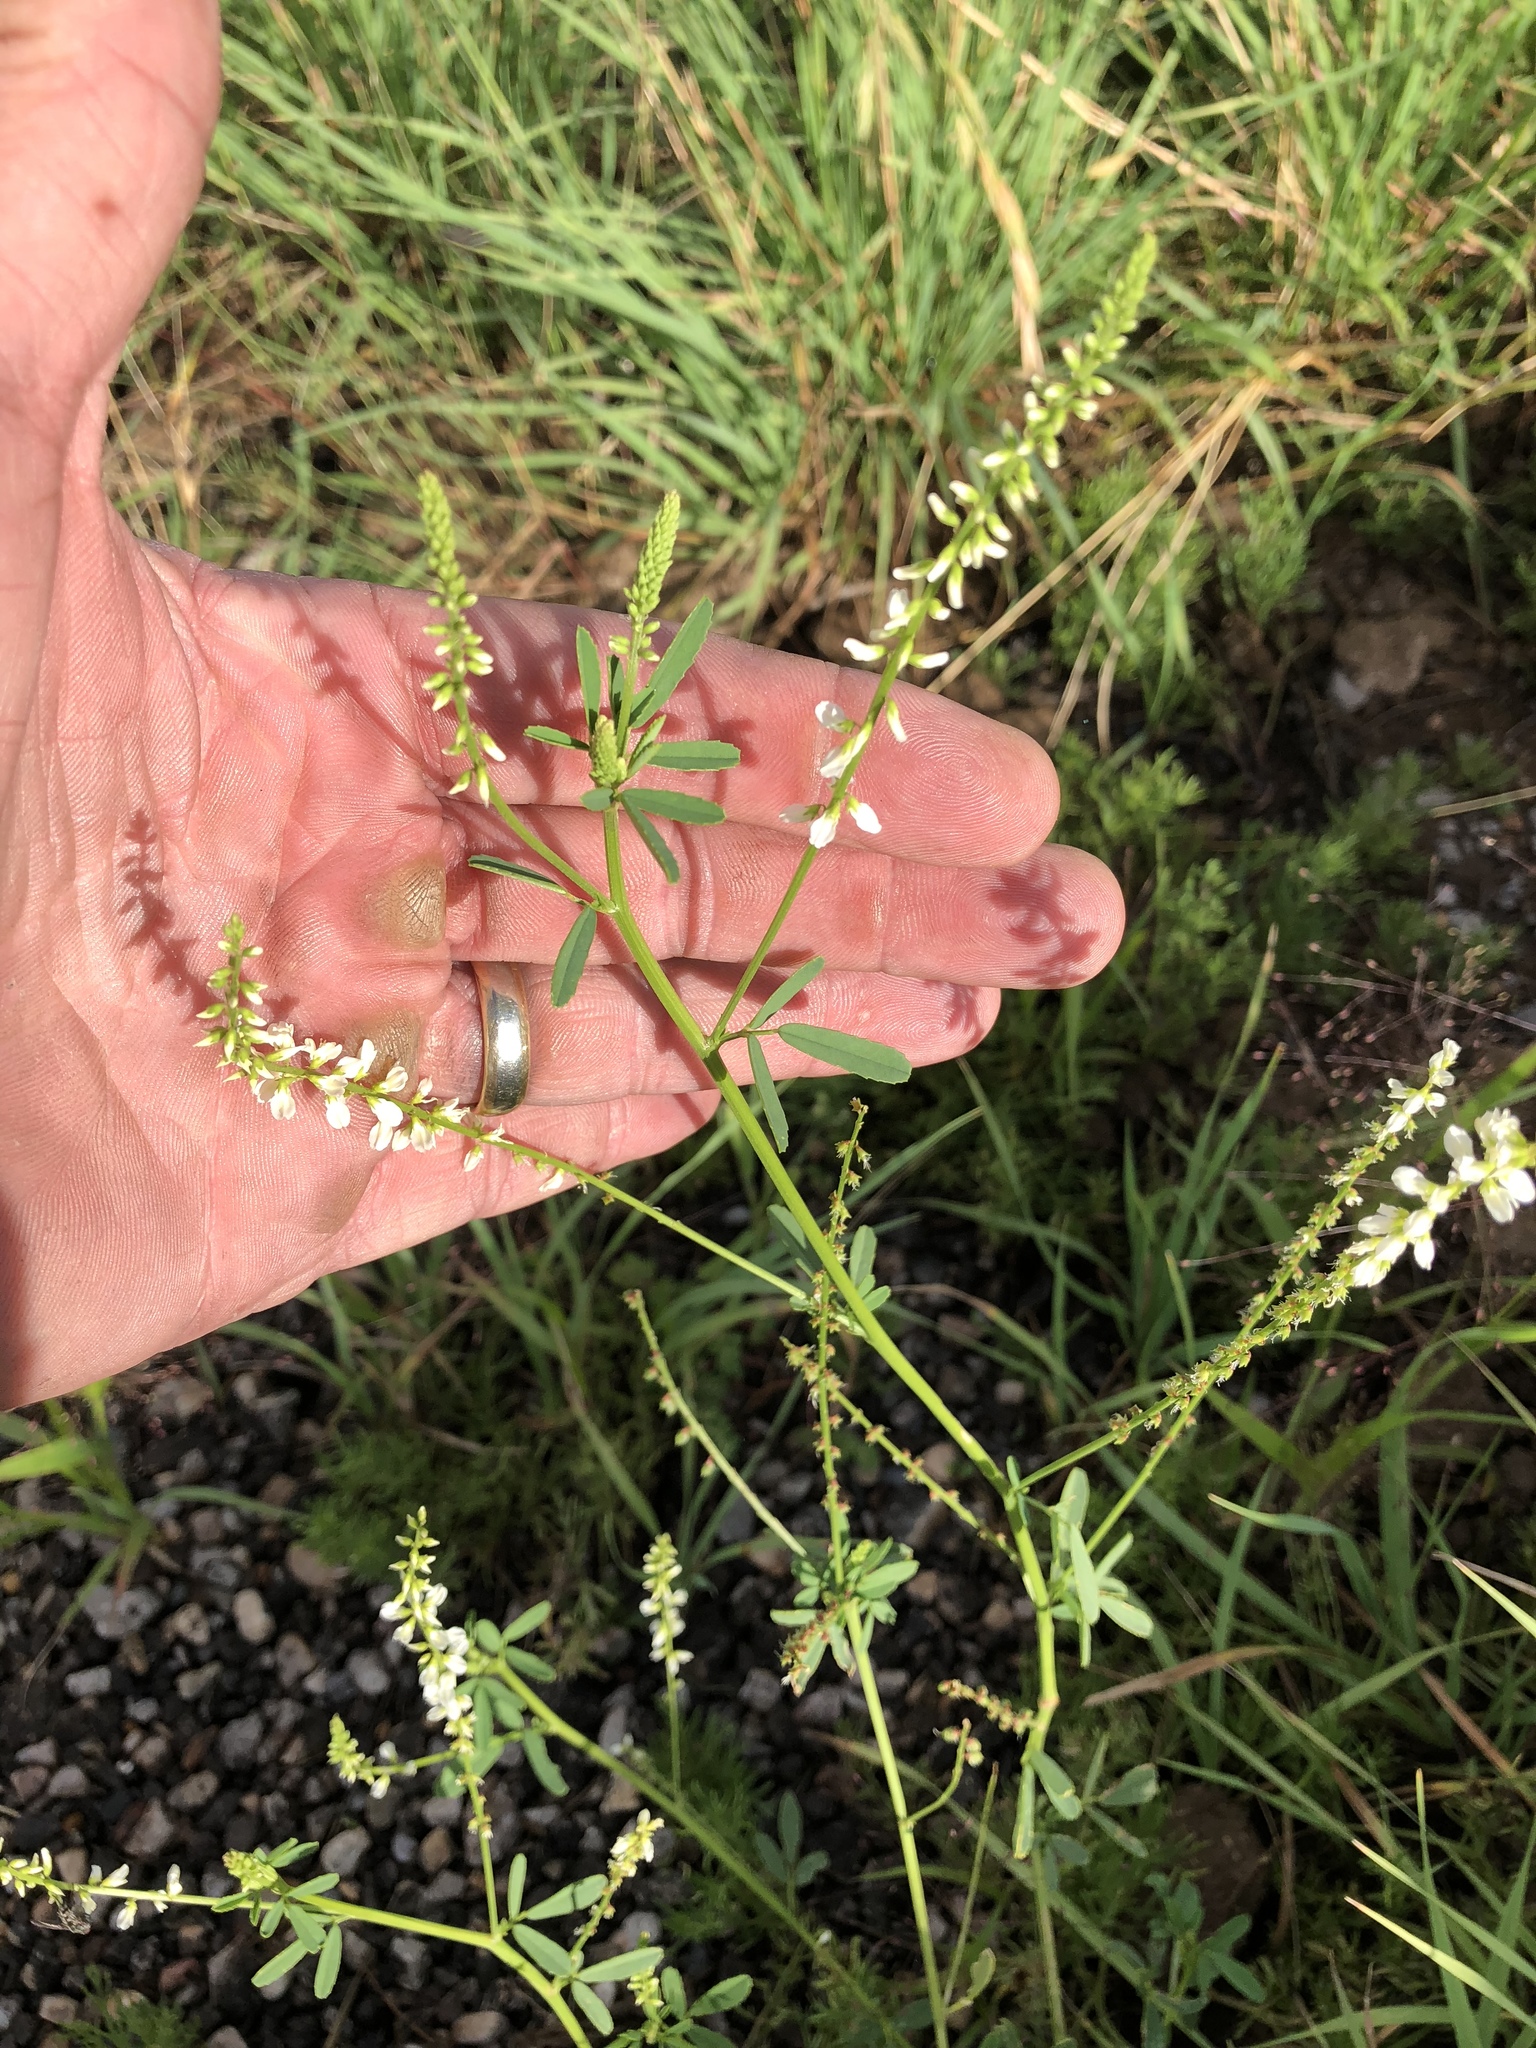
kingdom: Plantae
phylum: Tracheophyta
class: Magnoliopsida
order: Fabales
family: Fabaceae
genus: Melilotus
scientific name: Melilotus albus
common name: White melilot
